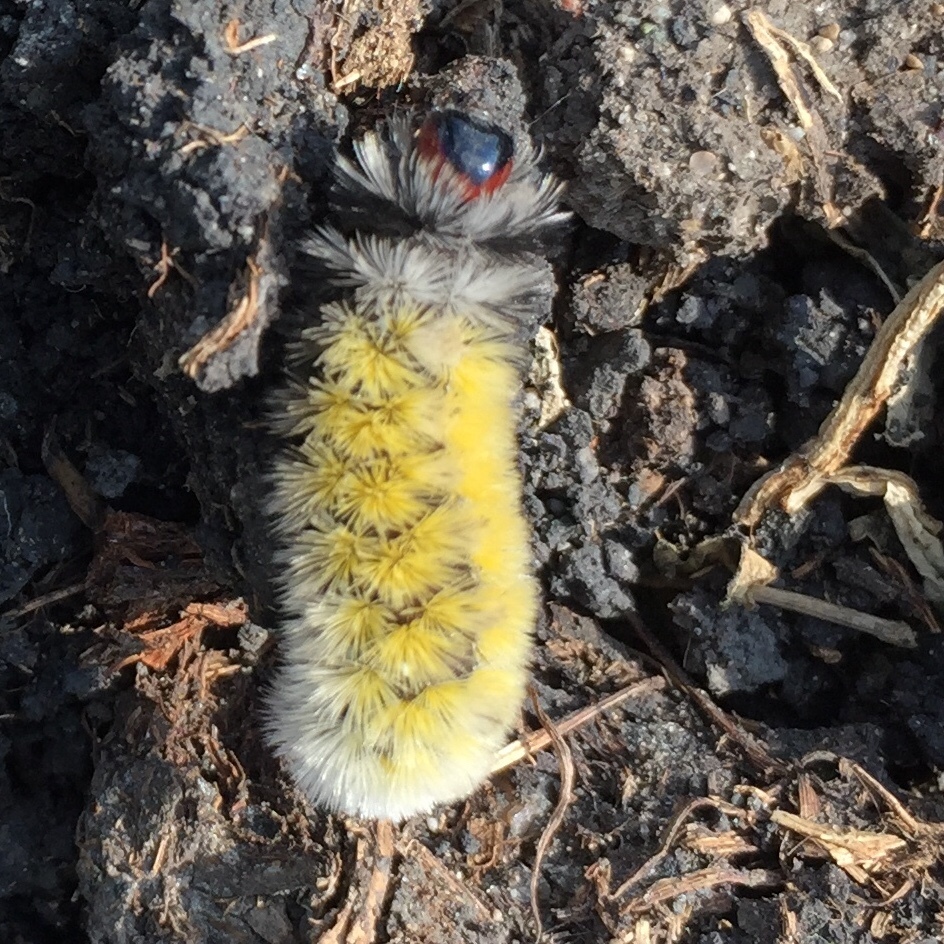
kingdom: Animalia
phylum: Arthropoda
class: Insecta
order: Lepidoptera
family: Erebidae
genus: Ctenucha
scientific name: Ctenucha virginica
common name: Virginia ctenucha moth
